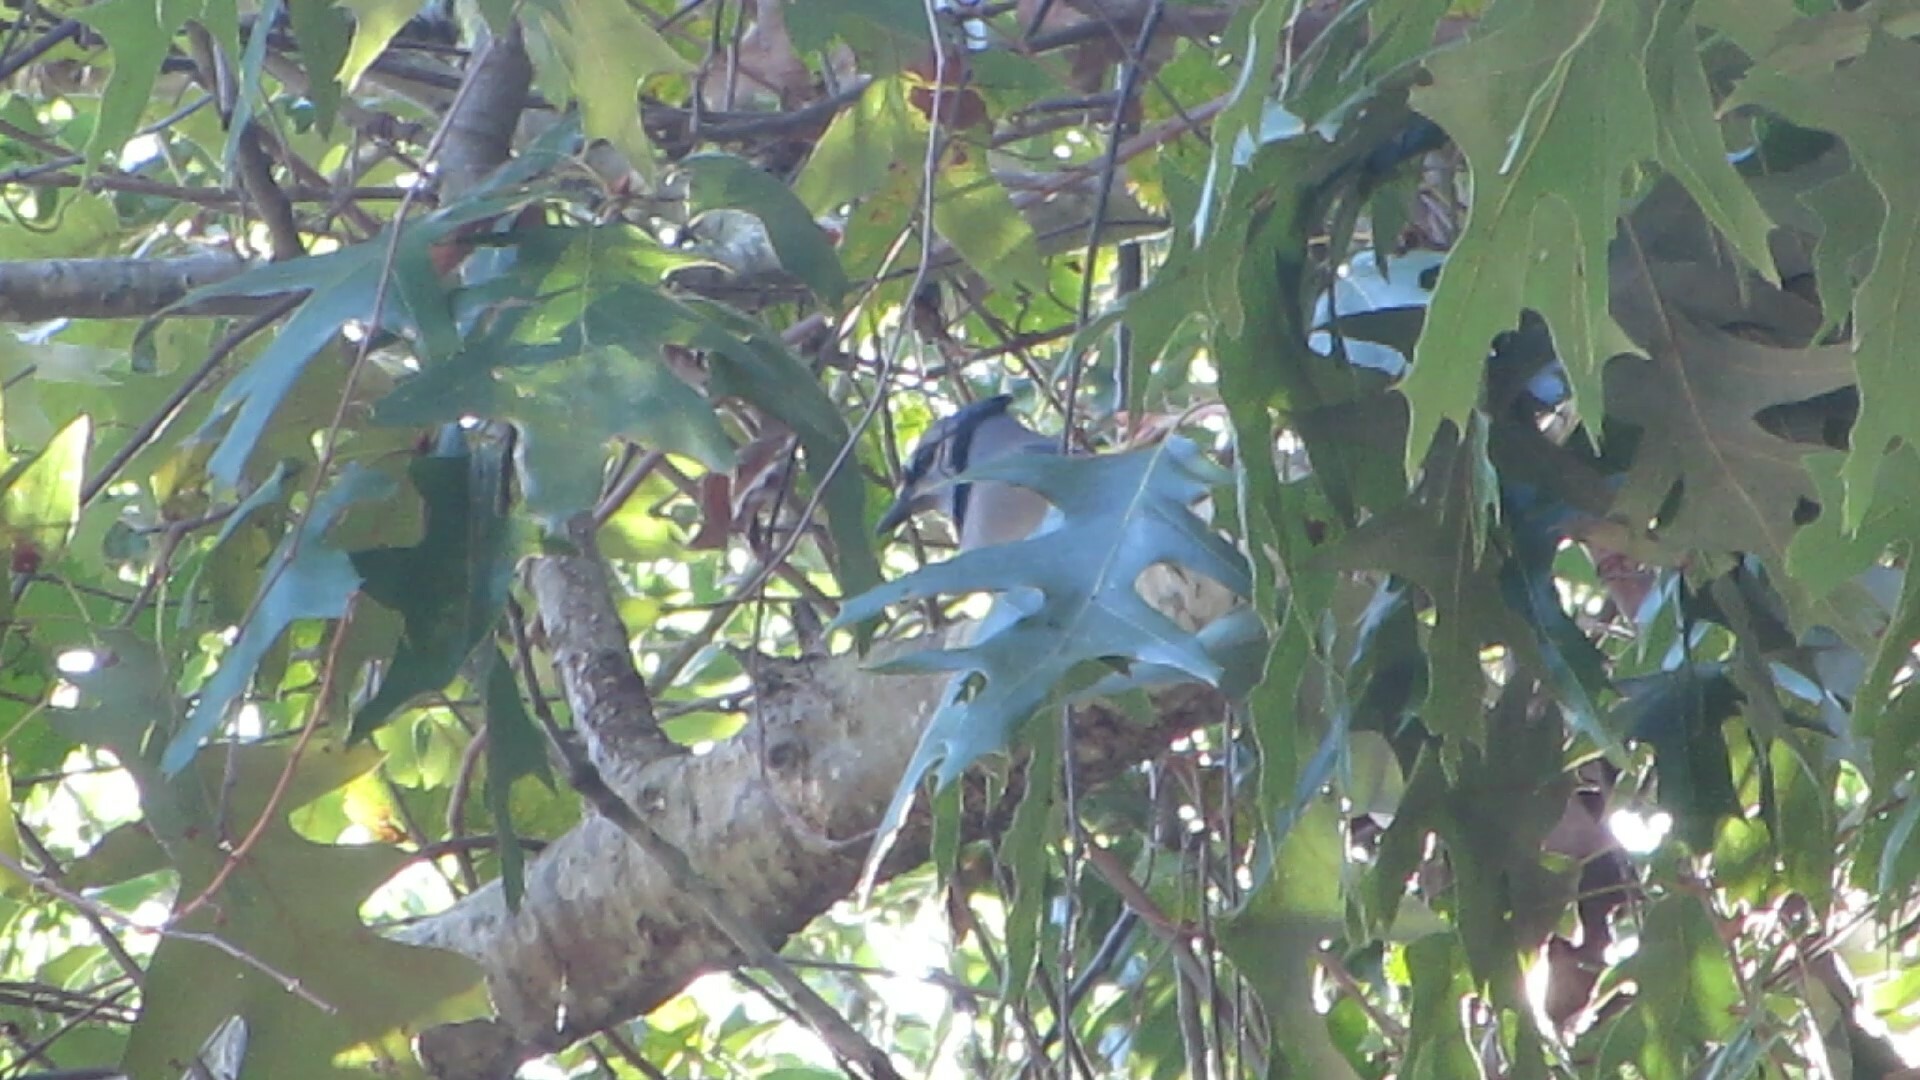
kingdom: Animalia
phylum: Chordata
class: Aves
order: Passeriformes
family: Corvidae
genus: Cyanocitta
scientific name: Cyanocitta cristata
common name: Blue jay
